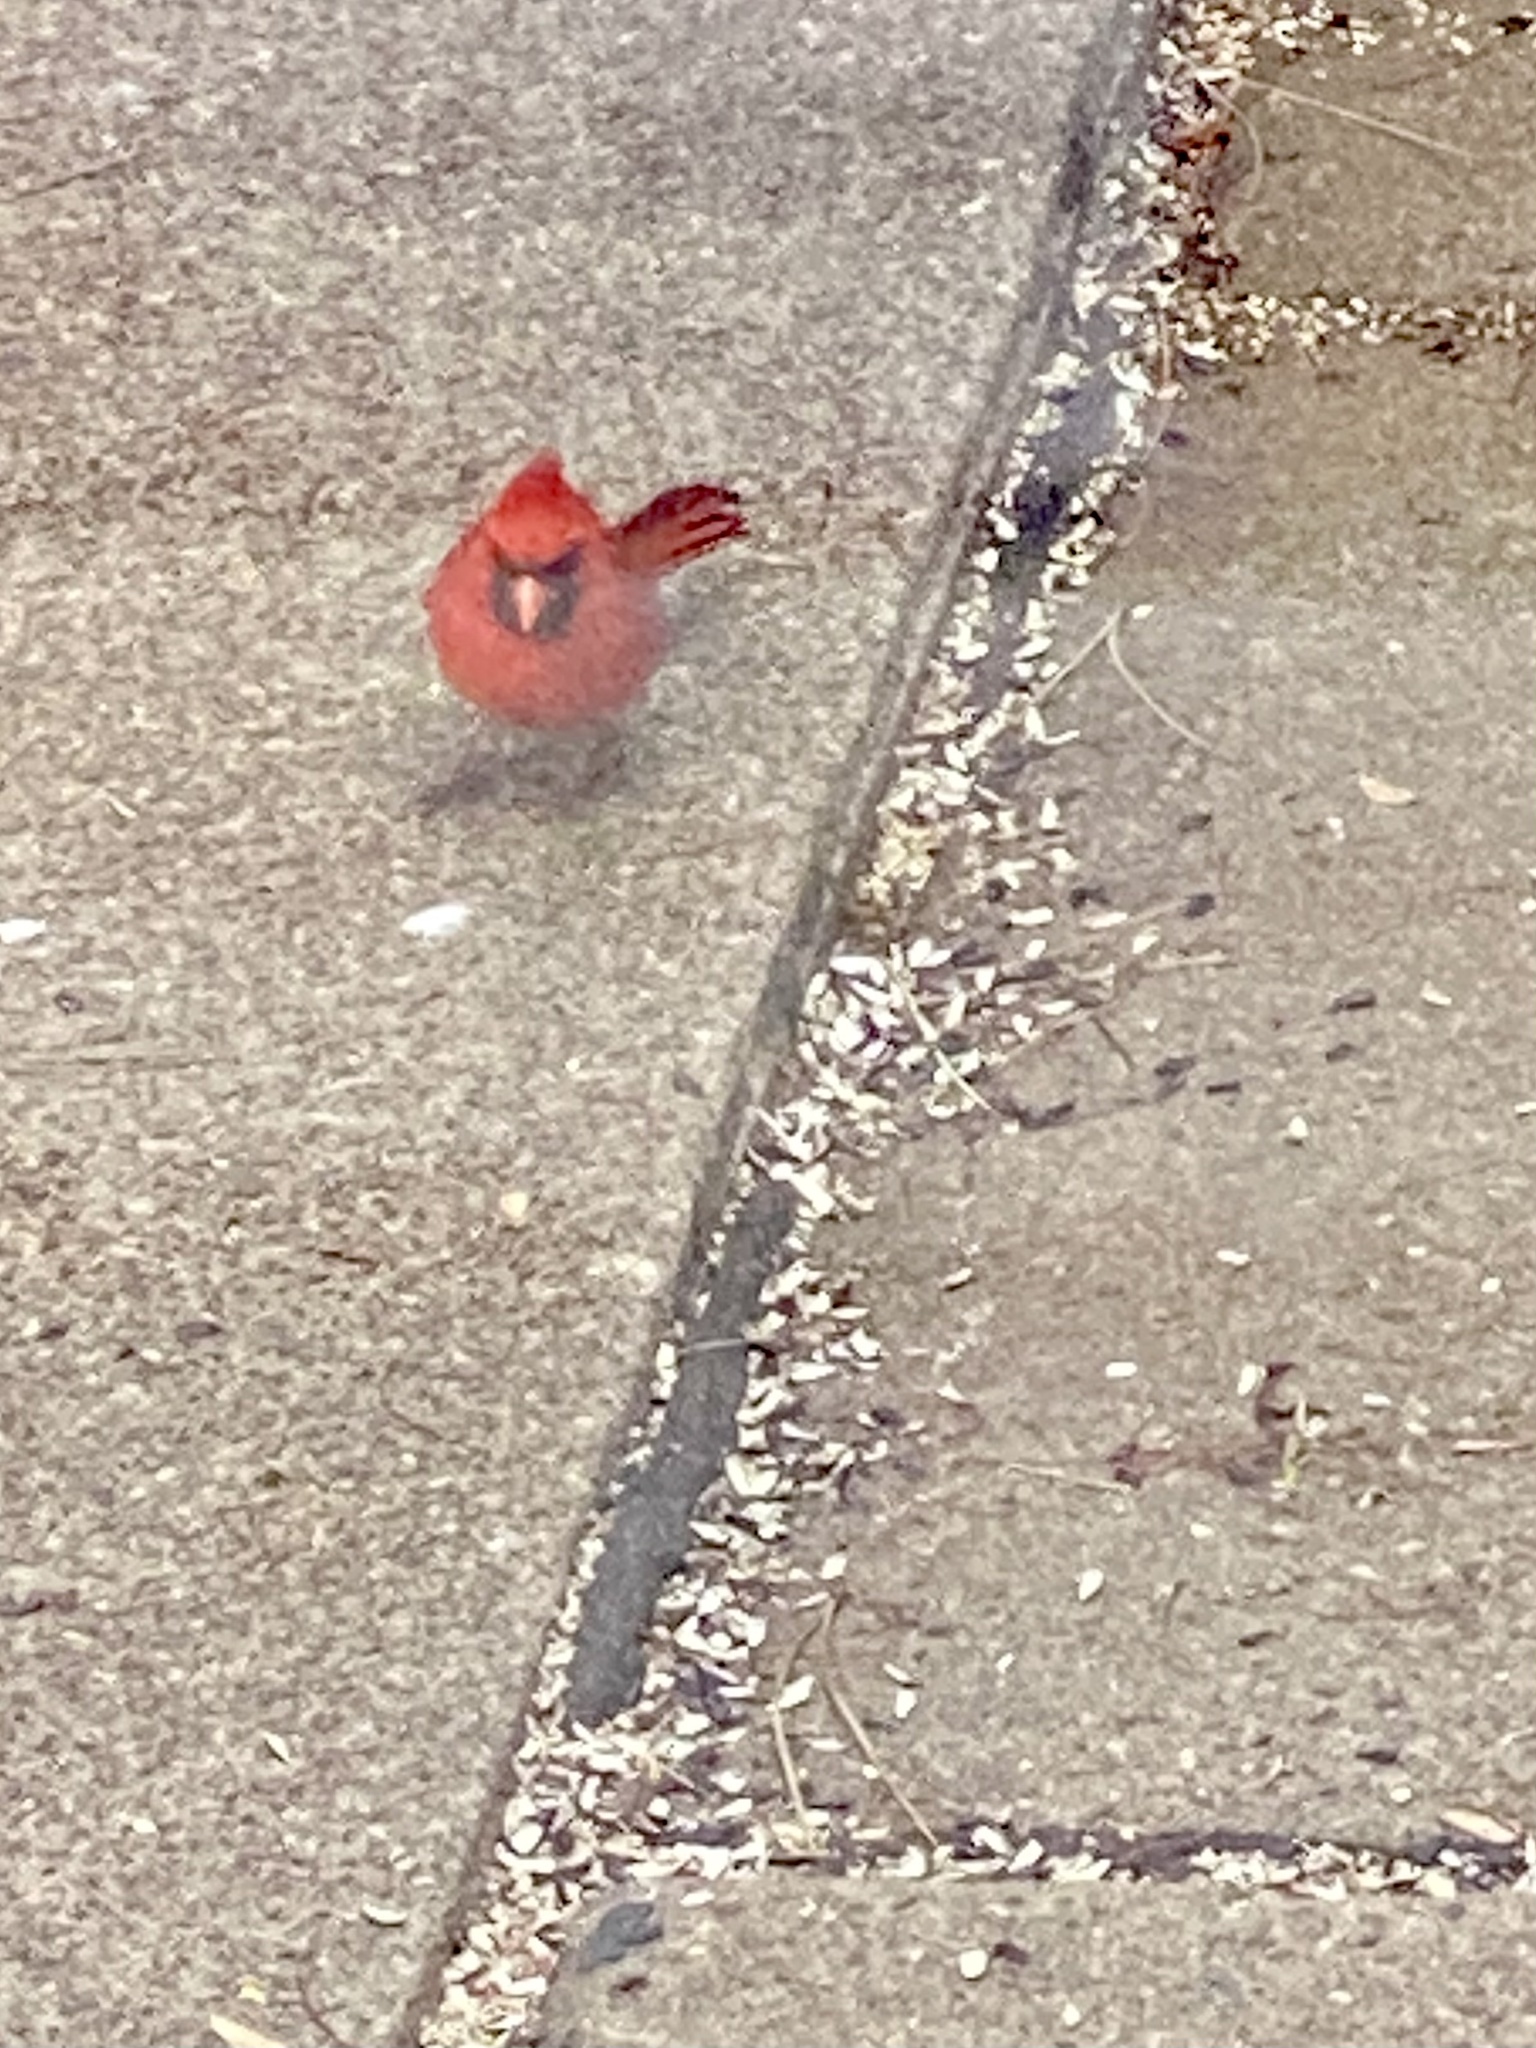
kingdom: Animalia
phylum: Chordata
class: Aves
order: Passeriformes
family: Cardinalidae
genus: Cardinalis
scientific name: Cardinalis cardinalis
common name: Northern cardinal
